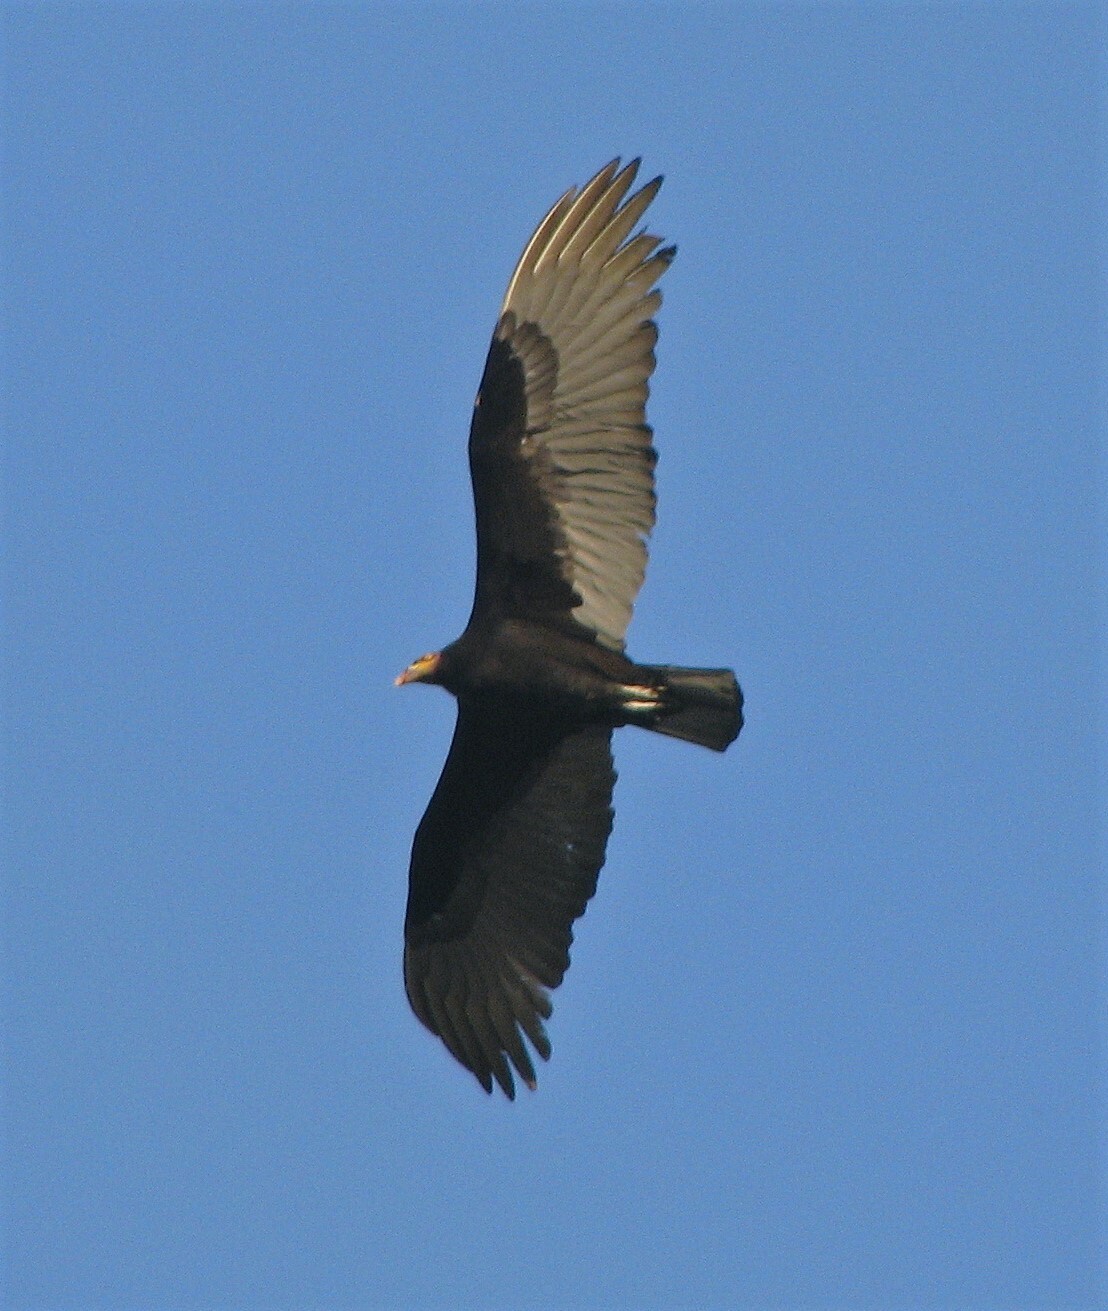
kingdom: Animalia
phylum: Chordata
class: Aves
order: Accipitriformes
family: Cathartidae
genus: Cathartes
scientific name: Cathartes burrovianus
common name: Lesser yellow-headed vulture
